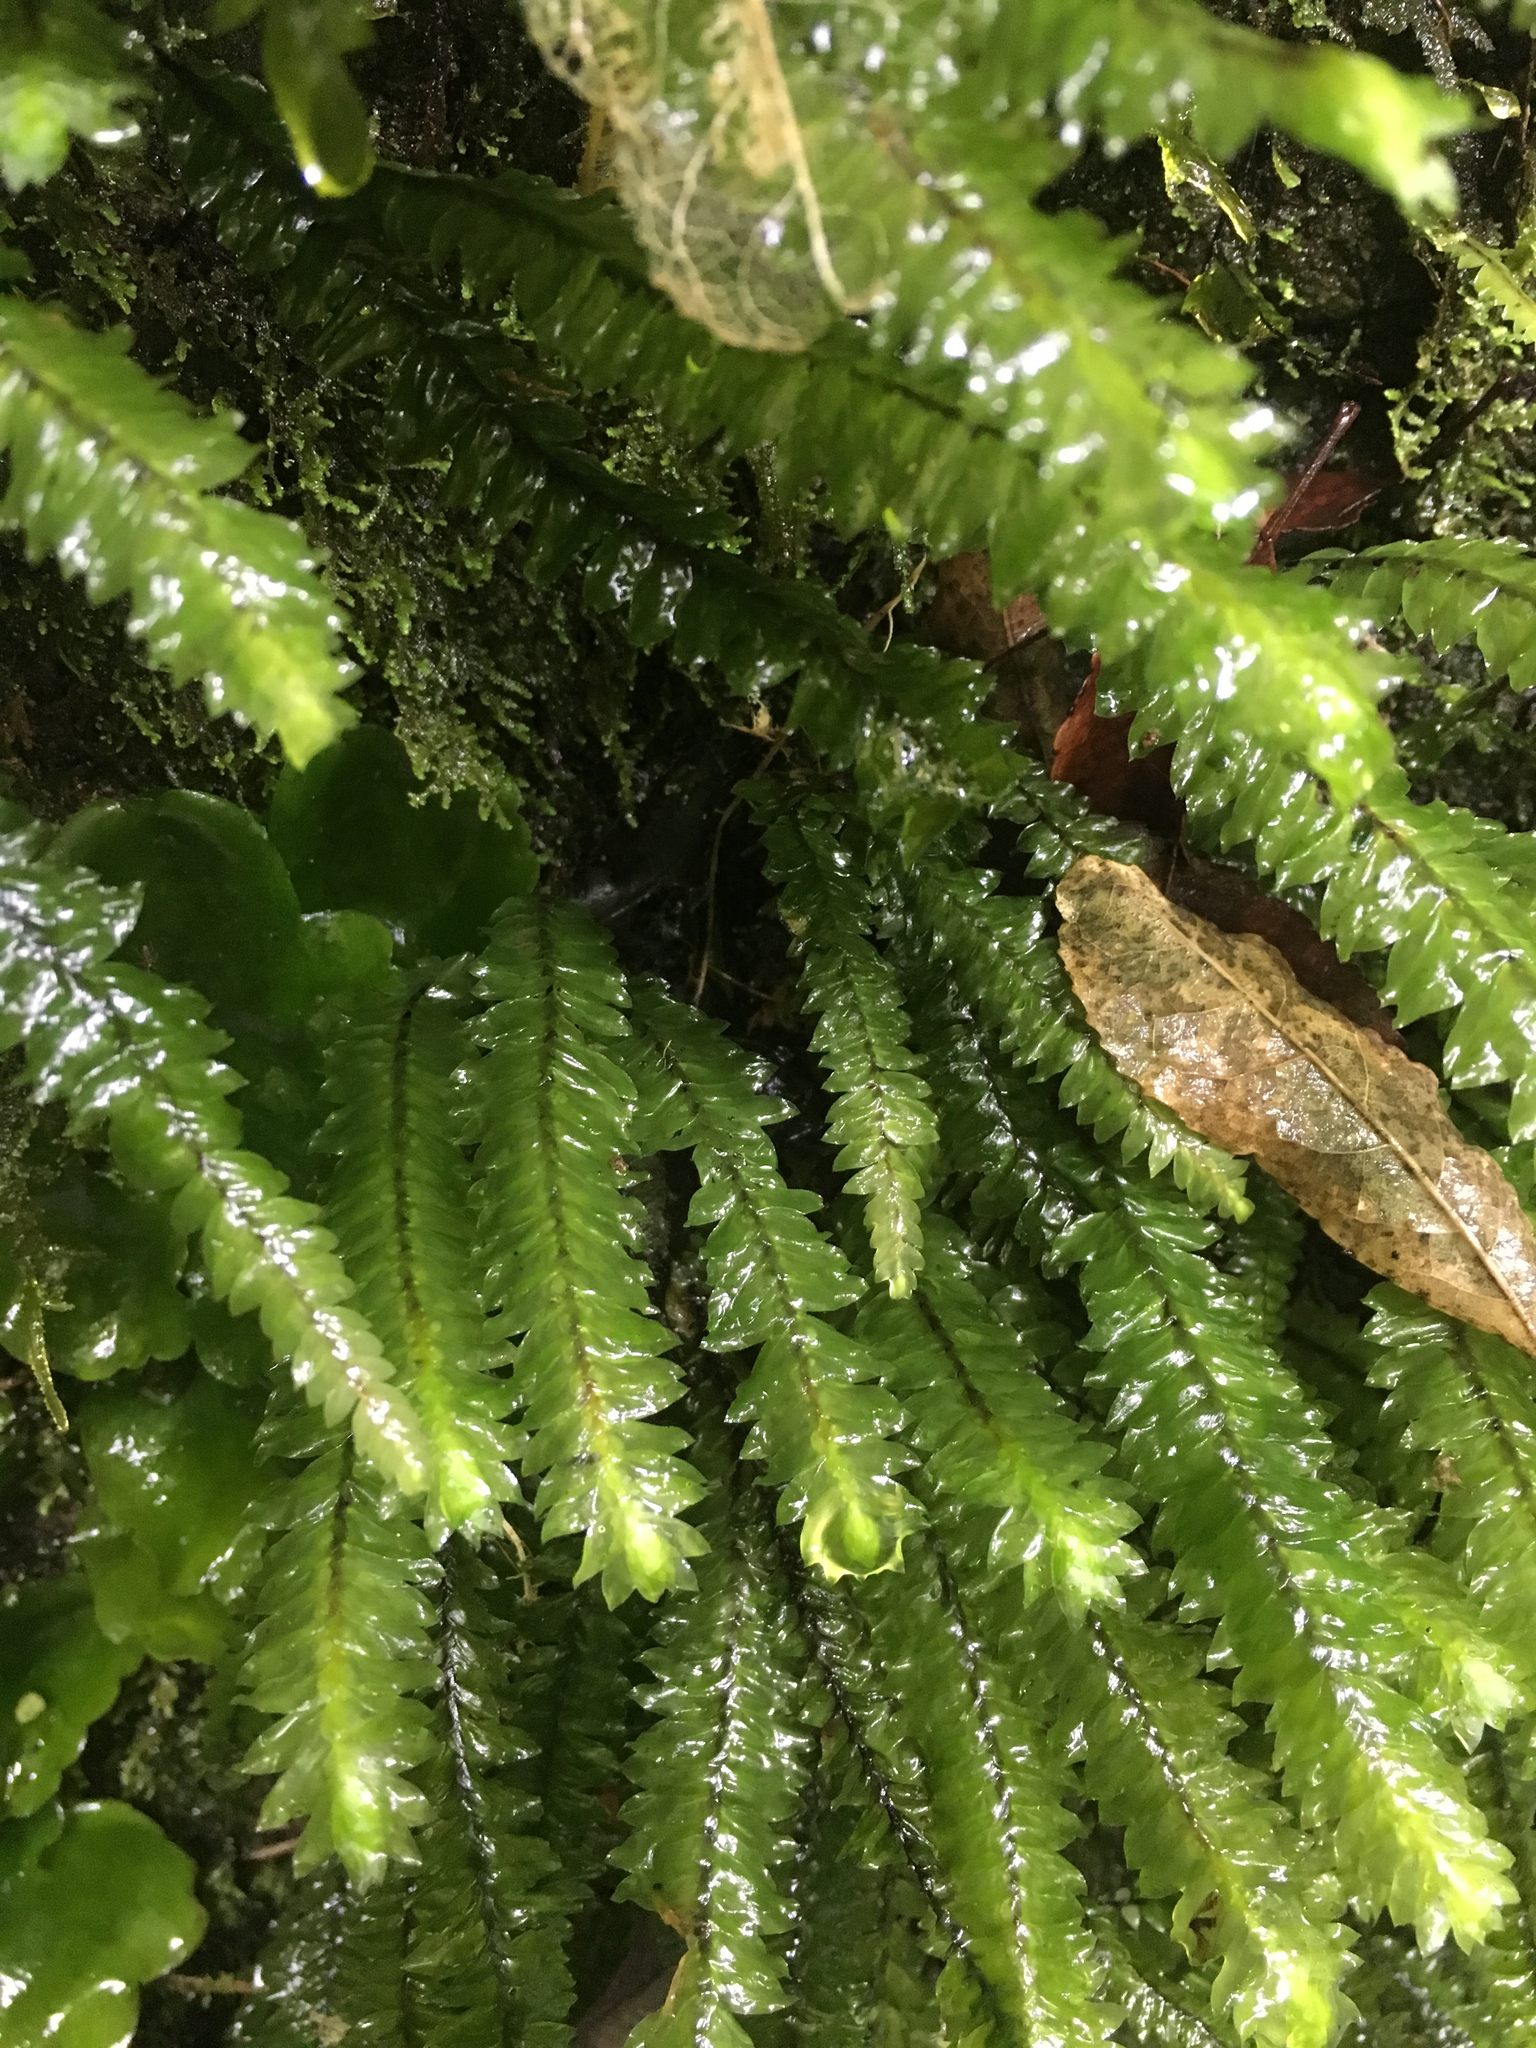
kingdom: Plantae
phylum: Bryophyta
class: Bryopsida
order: Hypopterygiales
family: Hypopterygiaceae
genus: Cyathophorum
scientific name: Cyathophorum bulbosum
